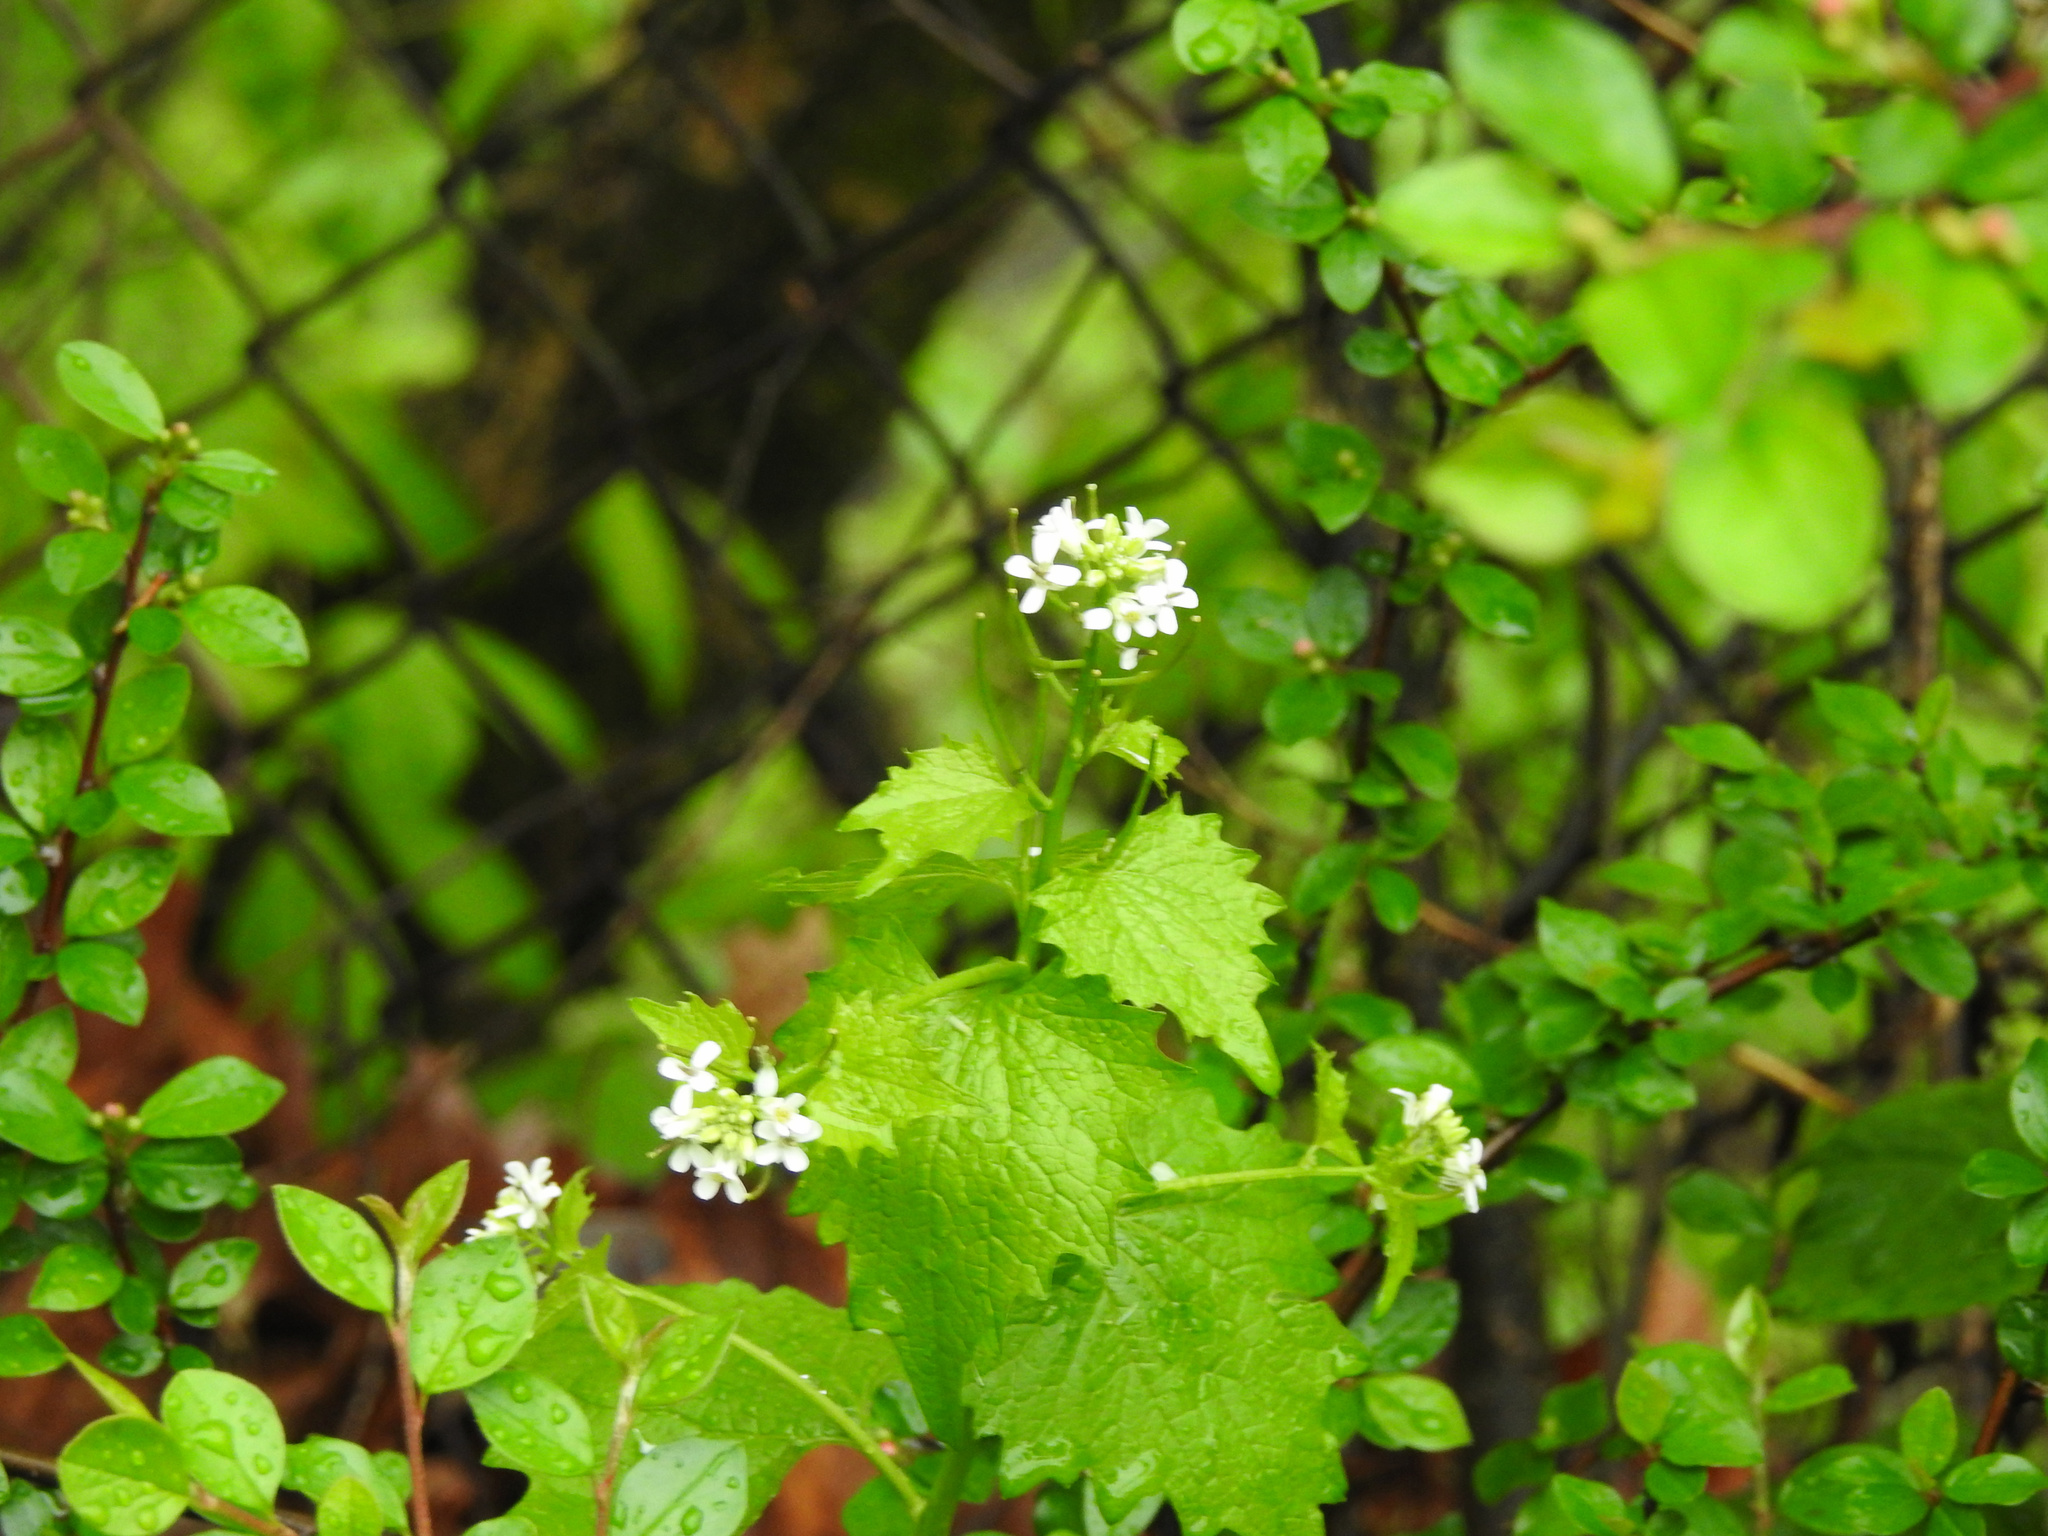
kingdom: Plantae
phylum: Tracheophyta
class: Magnoliopsida
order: Brassicales
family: Brassicaceae
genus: Alliaria
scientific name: Alliaria petiolata
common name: Garlic mustard
